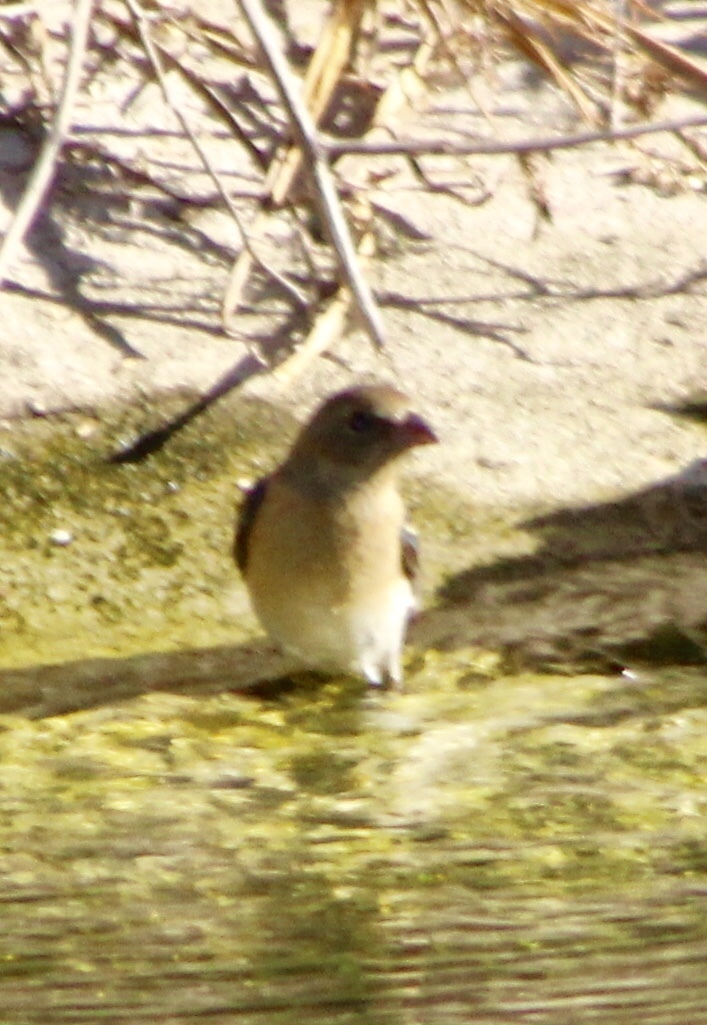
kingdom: Animalia
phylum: Chordata
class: Aves
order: Passeriformes
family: Cardinalidae
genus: Passerina
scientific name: Passerina amoena
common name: Lazuli bunting
